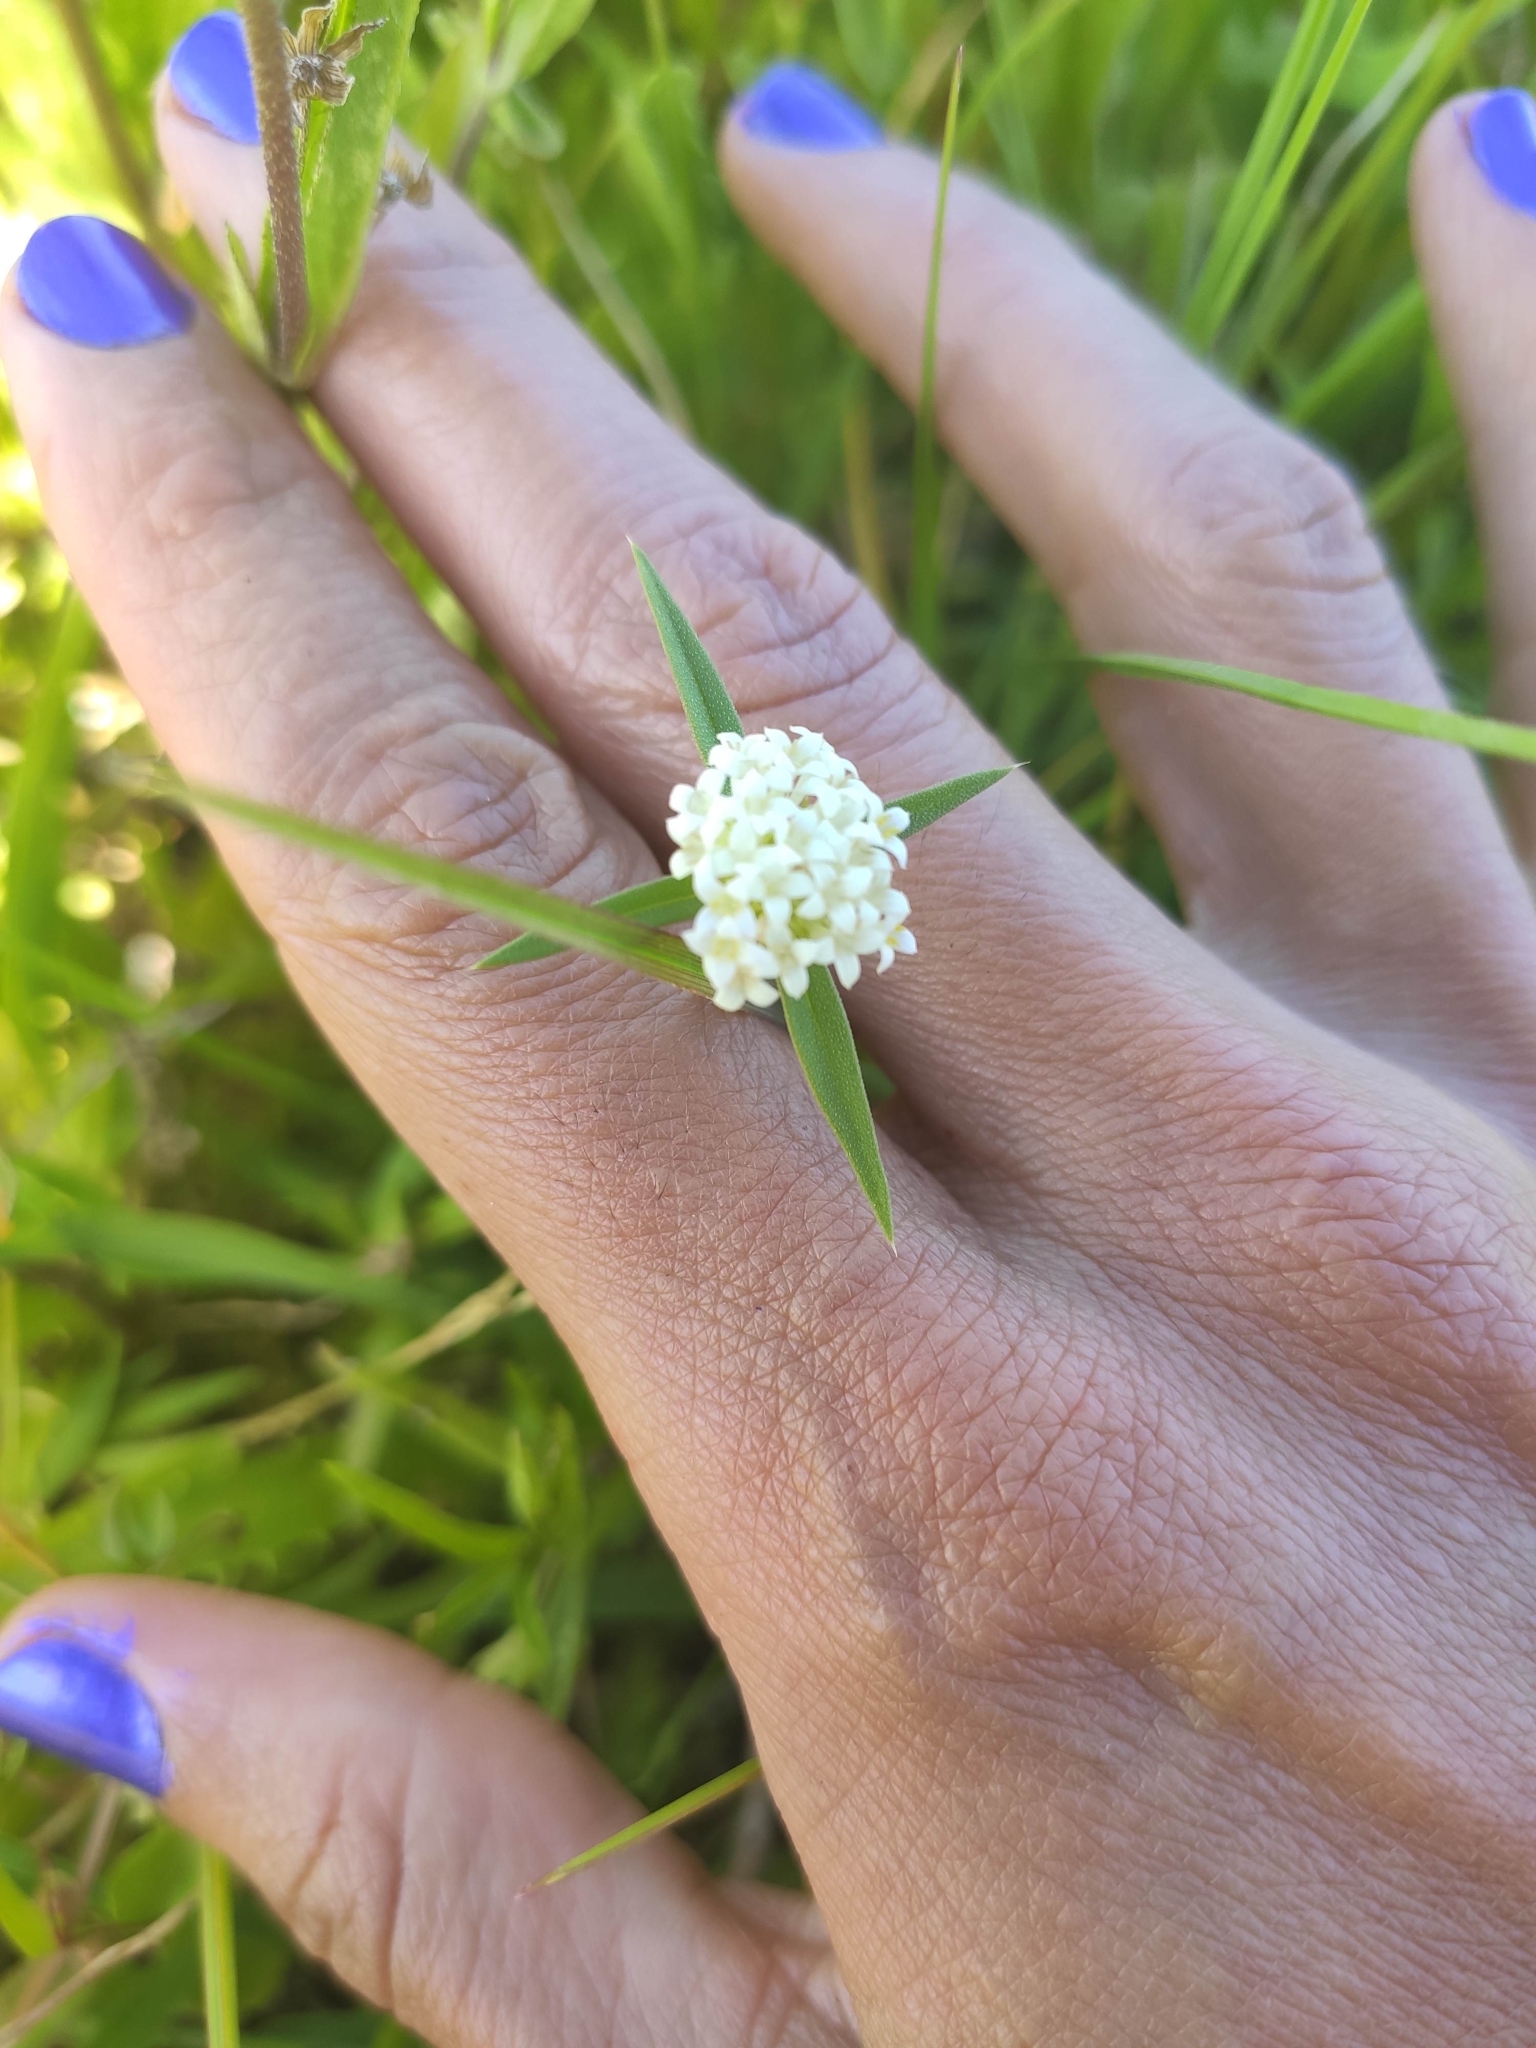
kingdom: Plantae
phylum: Tracheophyta
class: Magnoliopsida
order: Gentianales
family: Rubiaceae
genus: Mitracarpus
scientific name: Mitracarpus megapotamicus
